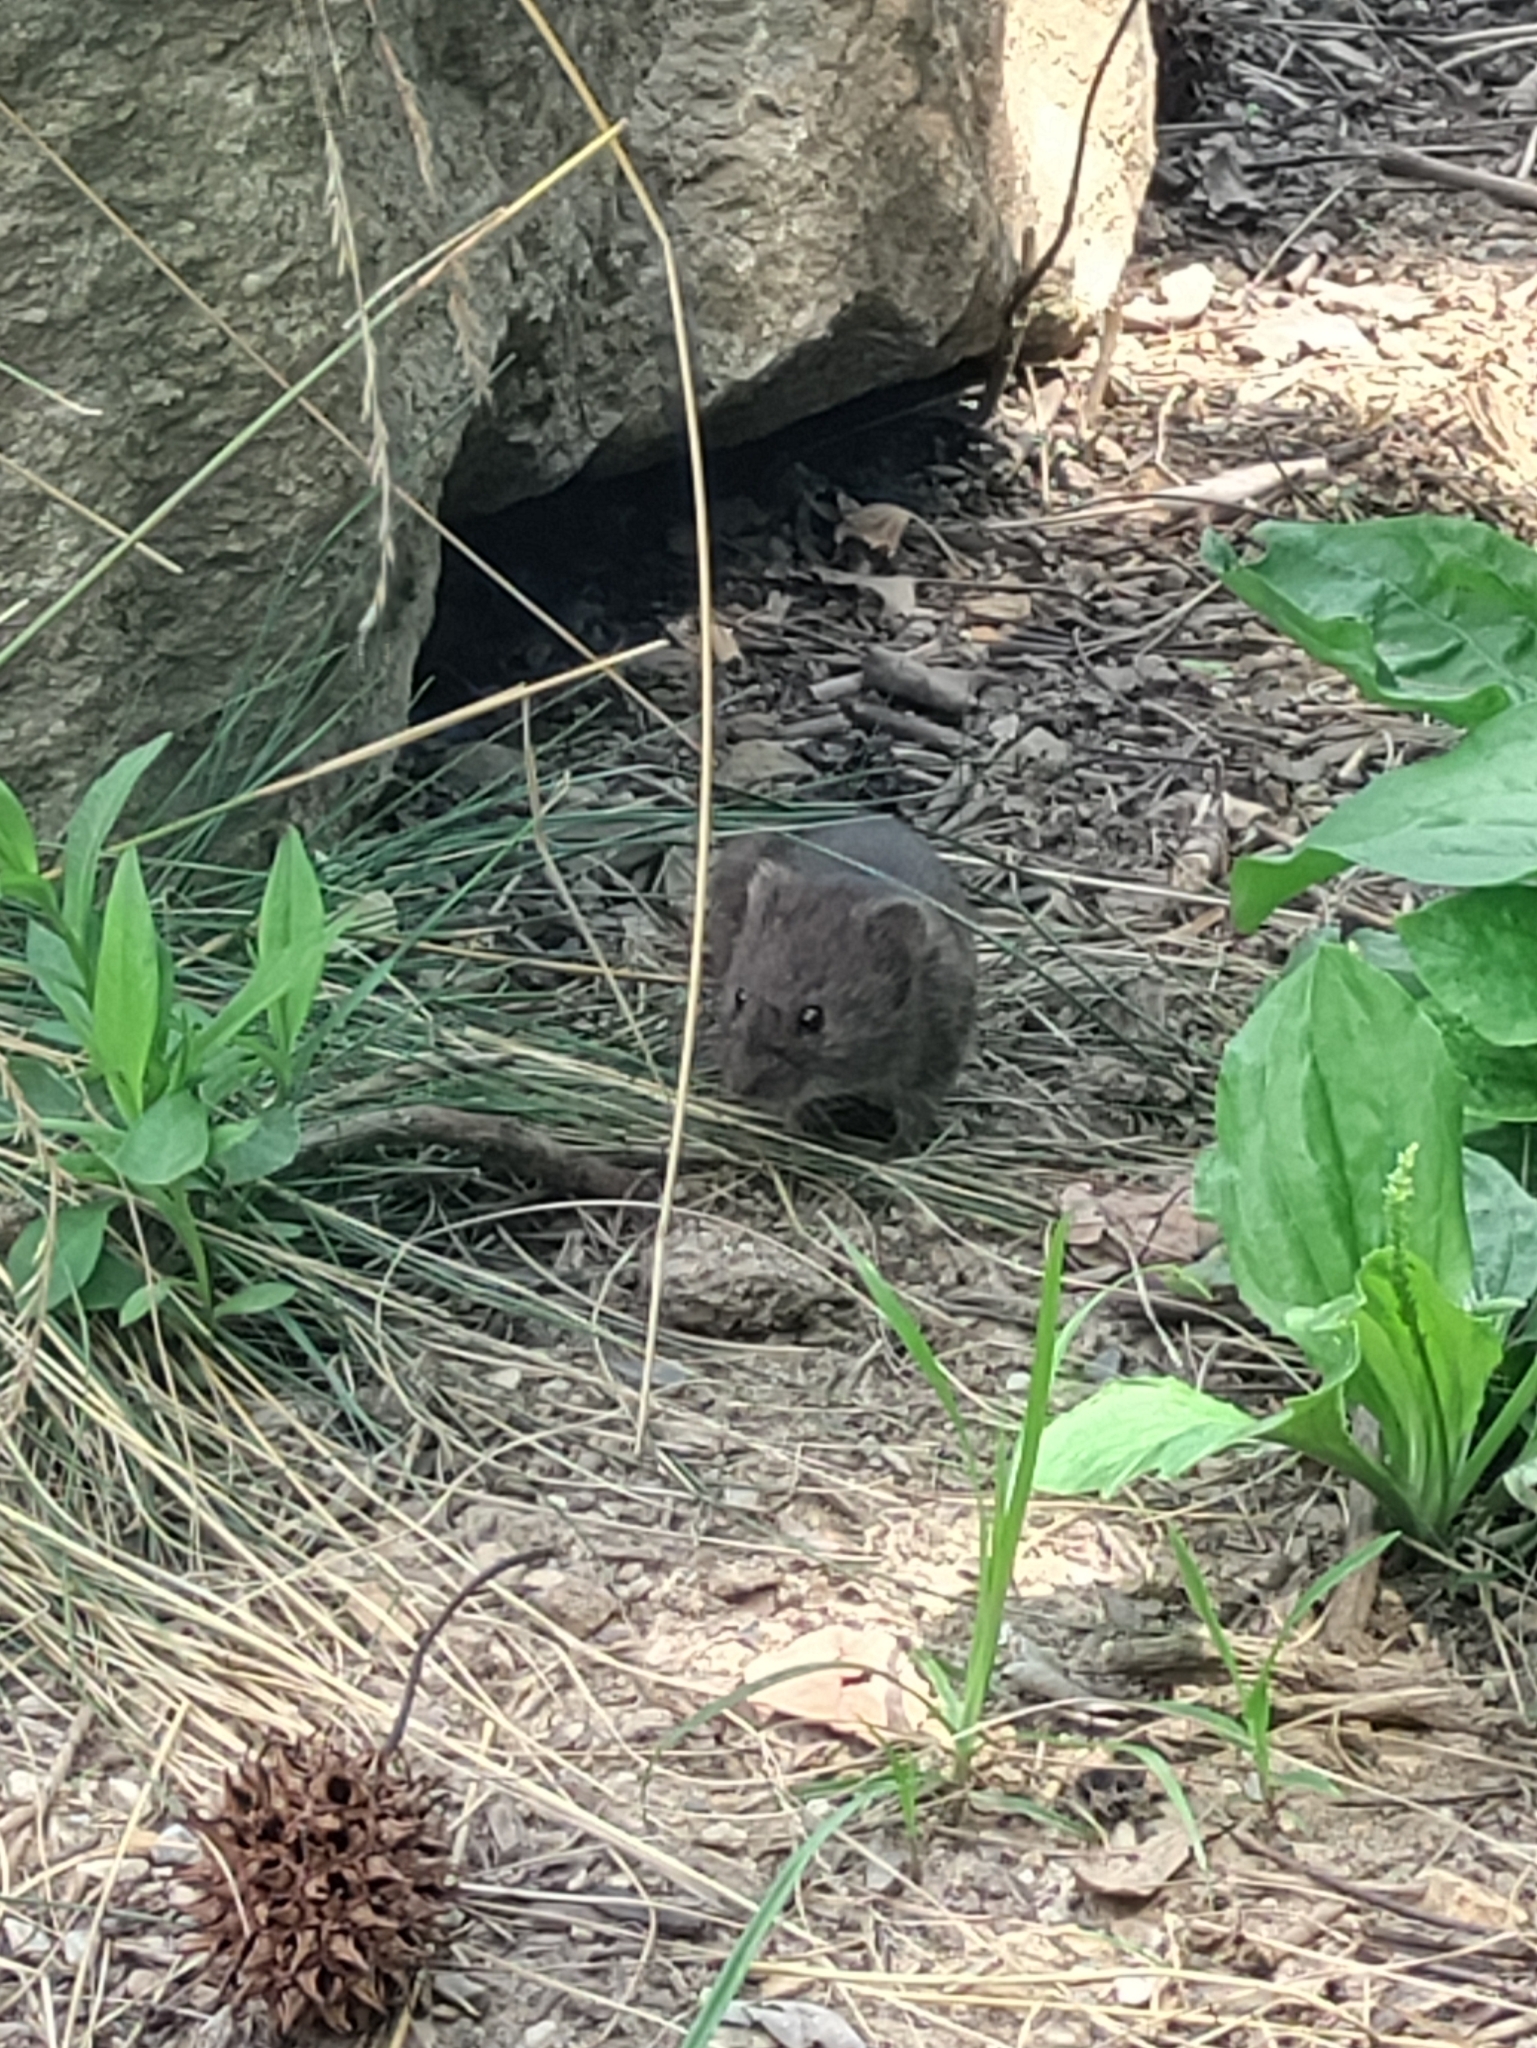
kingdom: Animalia
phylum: Chordata
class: Mammalia
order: Rodentia
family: Cricetidae
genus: Microtus
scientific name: Microtus pennsylvanicus
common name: Meadow vole
